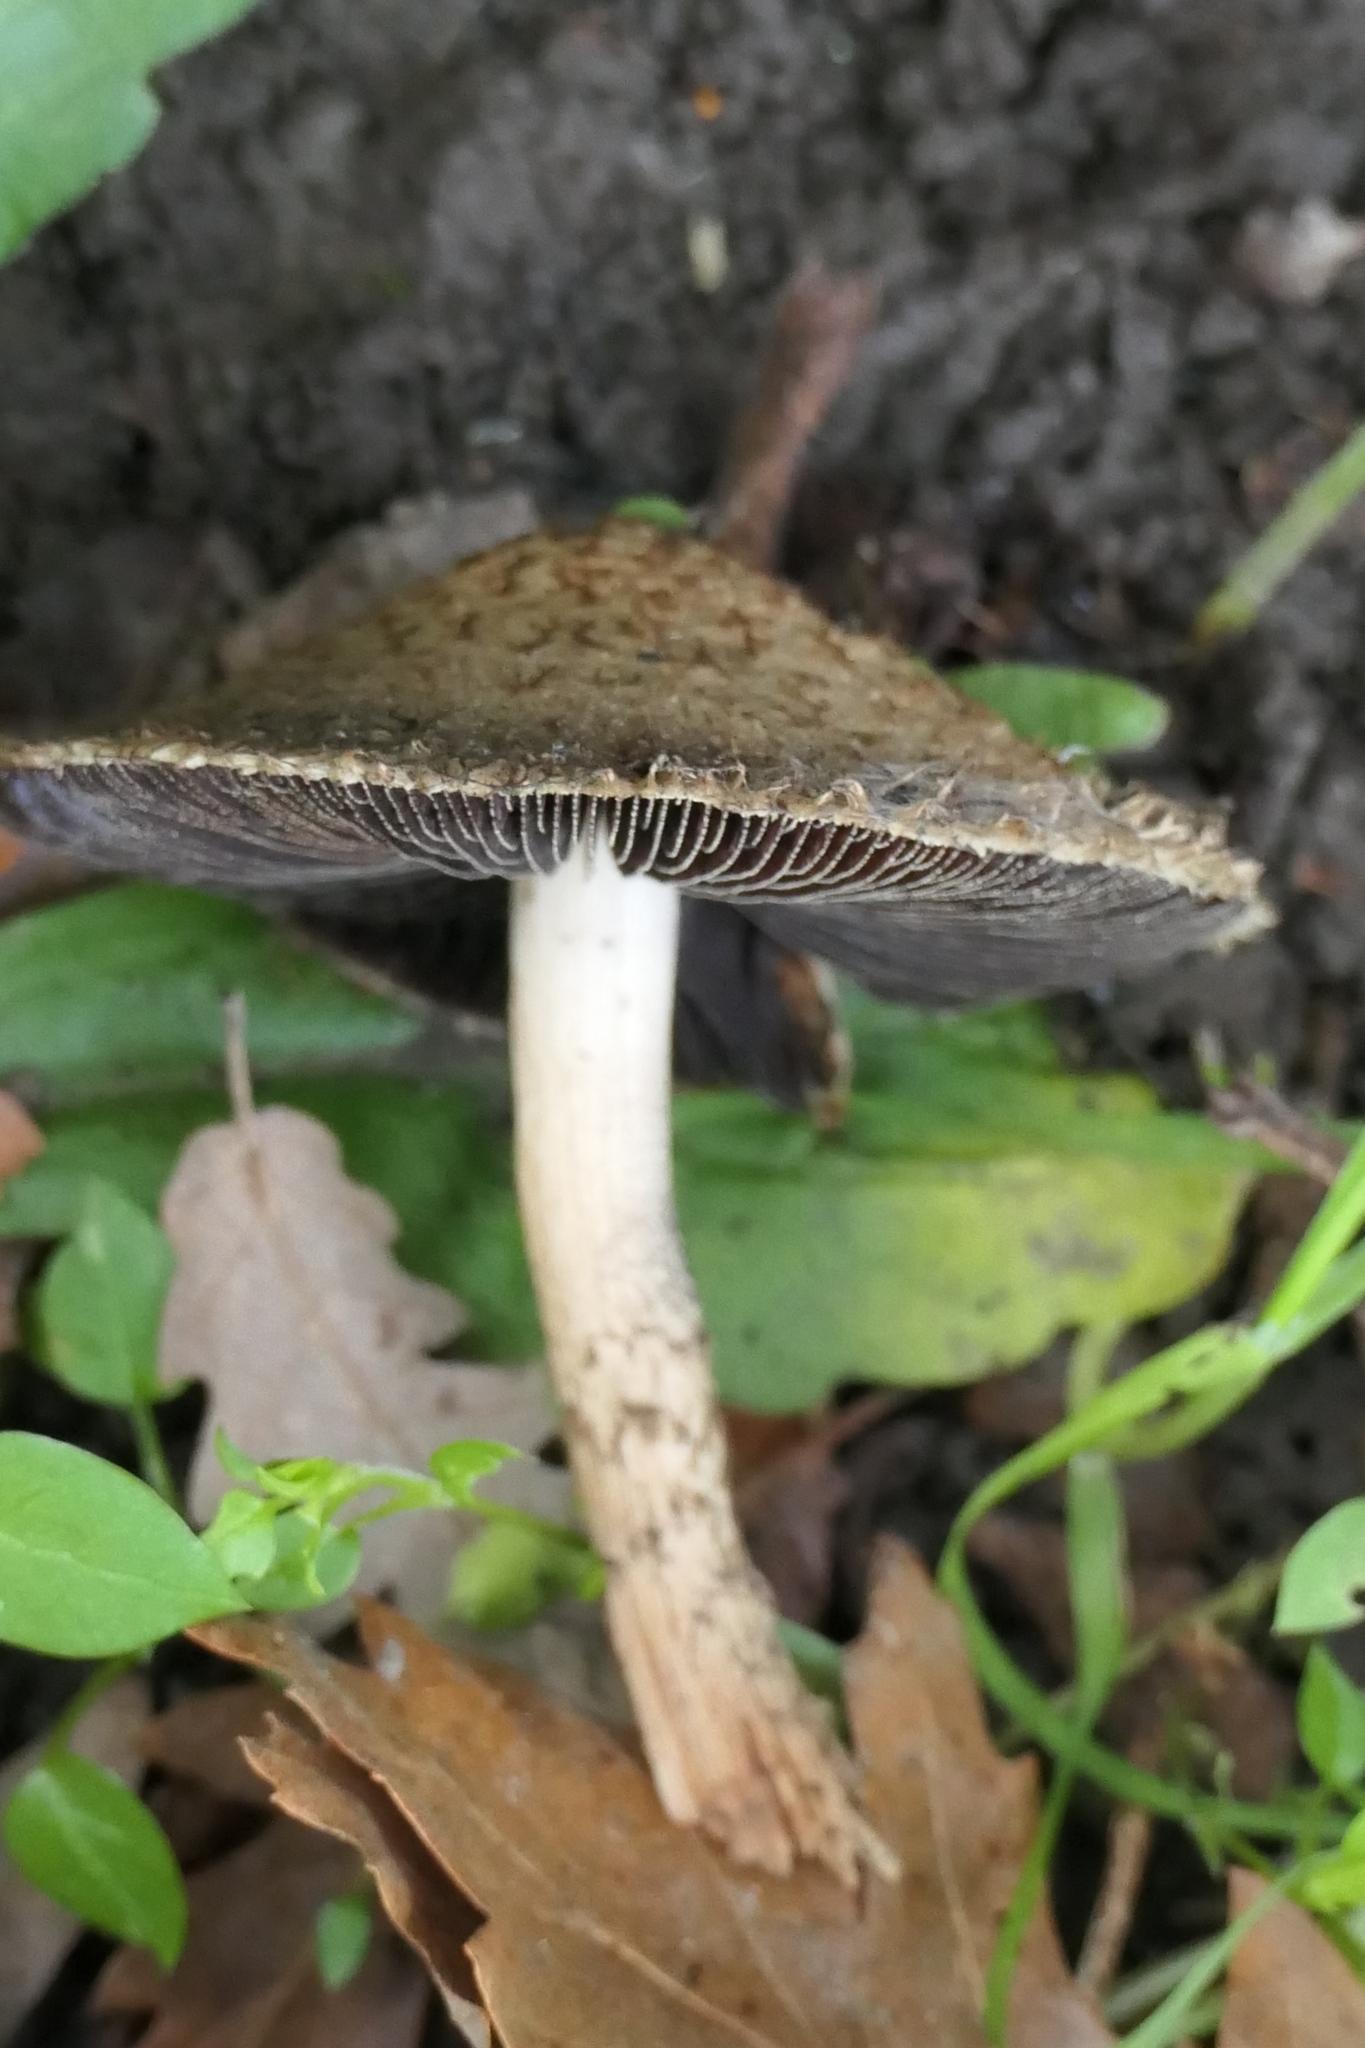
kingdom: Fungi
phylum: Basidiomycota
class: Agaricomycetes
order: Agaricales
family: Psathyrellaceae
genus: Psathyrella
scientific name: Psathyrella asperospora
